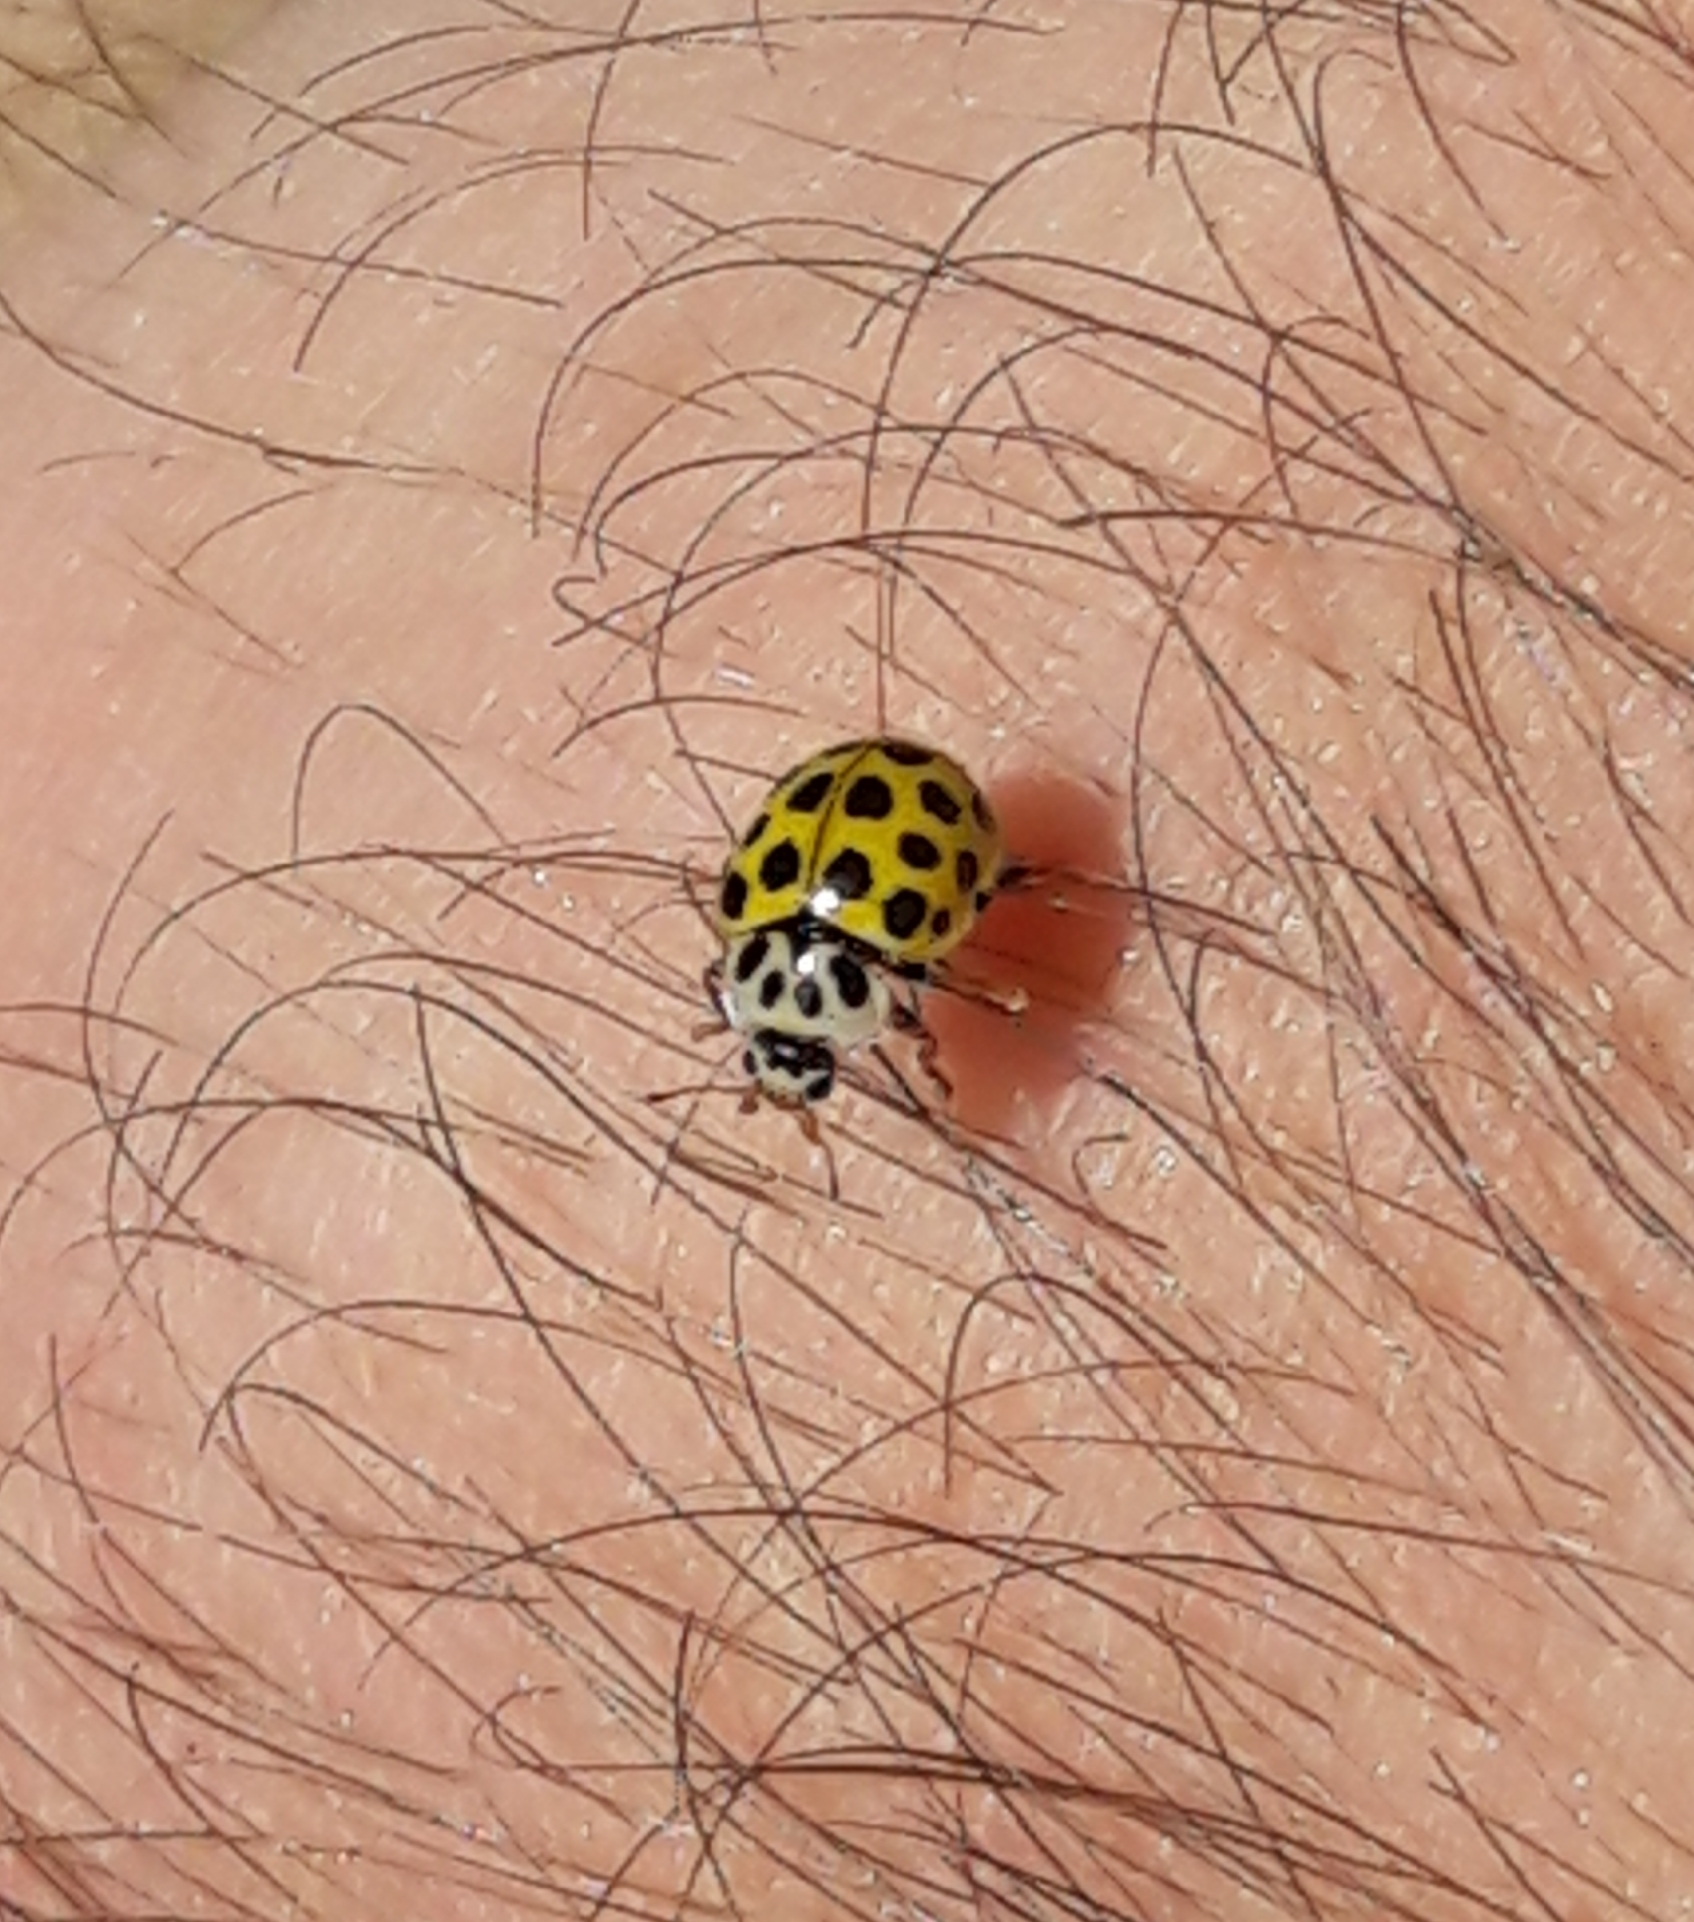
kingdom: Animalia
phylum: Arthropoda
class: Insecta
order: Coleoptera
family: Coccinellidae
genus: Psyllobora
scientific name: Psyllobora vigintiduopunctata
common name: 22-spot ladybird
